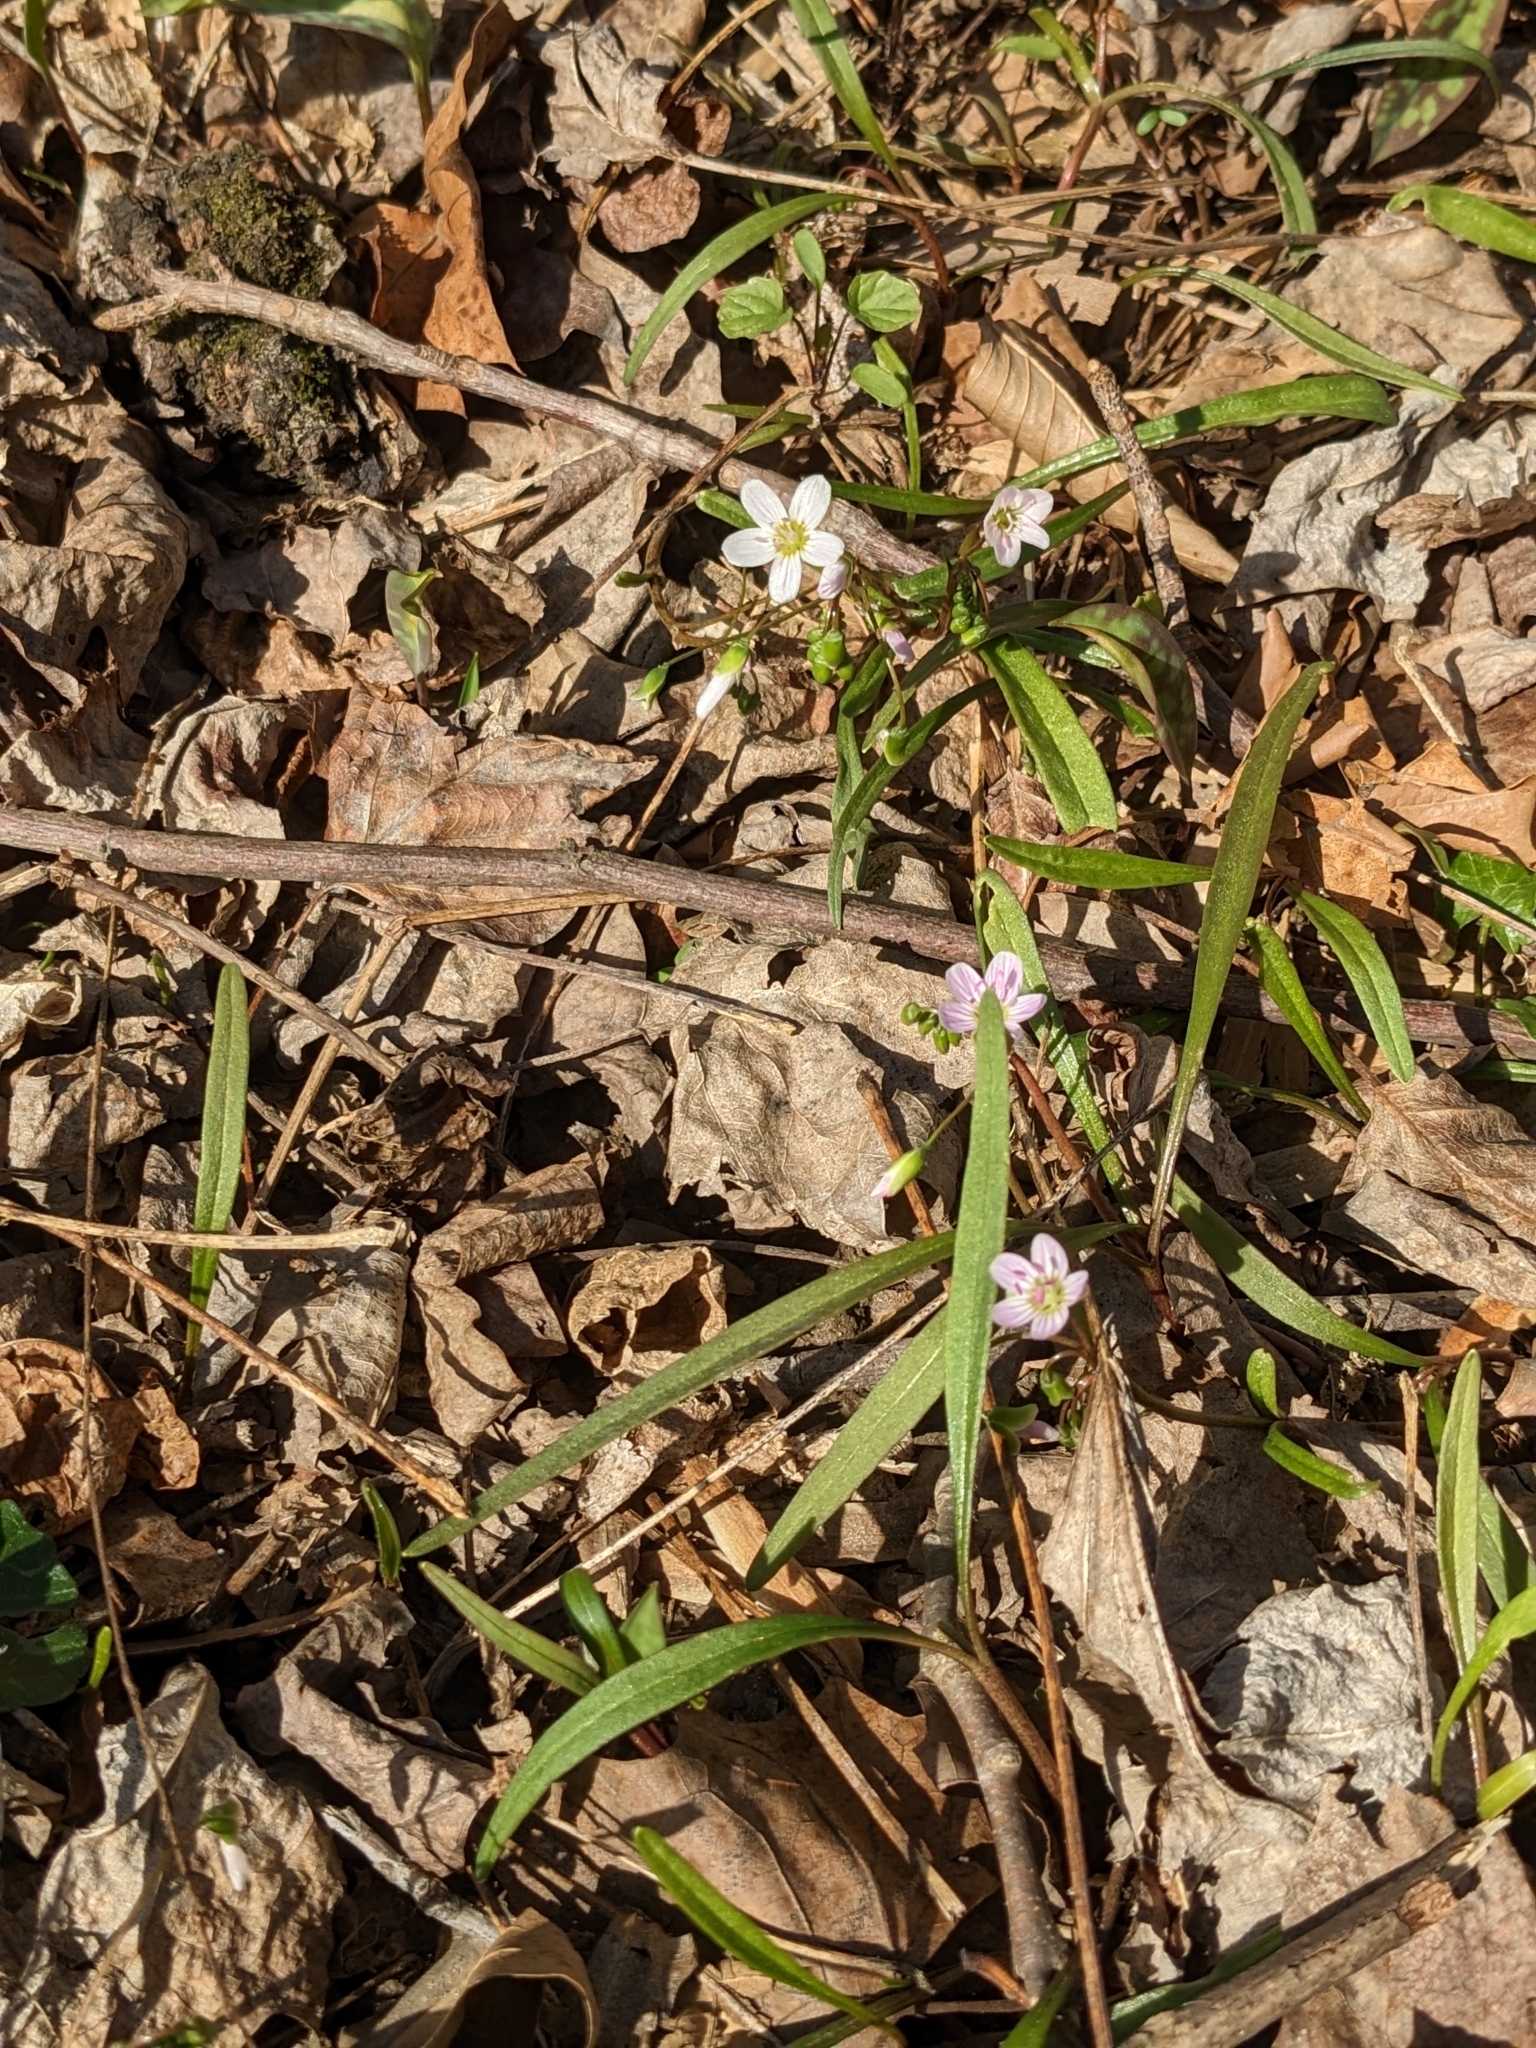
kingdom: Plantae
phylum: Tracheophyta
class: Magnoliopsida
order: Caryophyllales
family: Montiaceae
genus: Claytonia
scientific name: Claytonia virginica
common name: Virginia springbeauty
